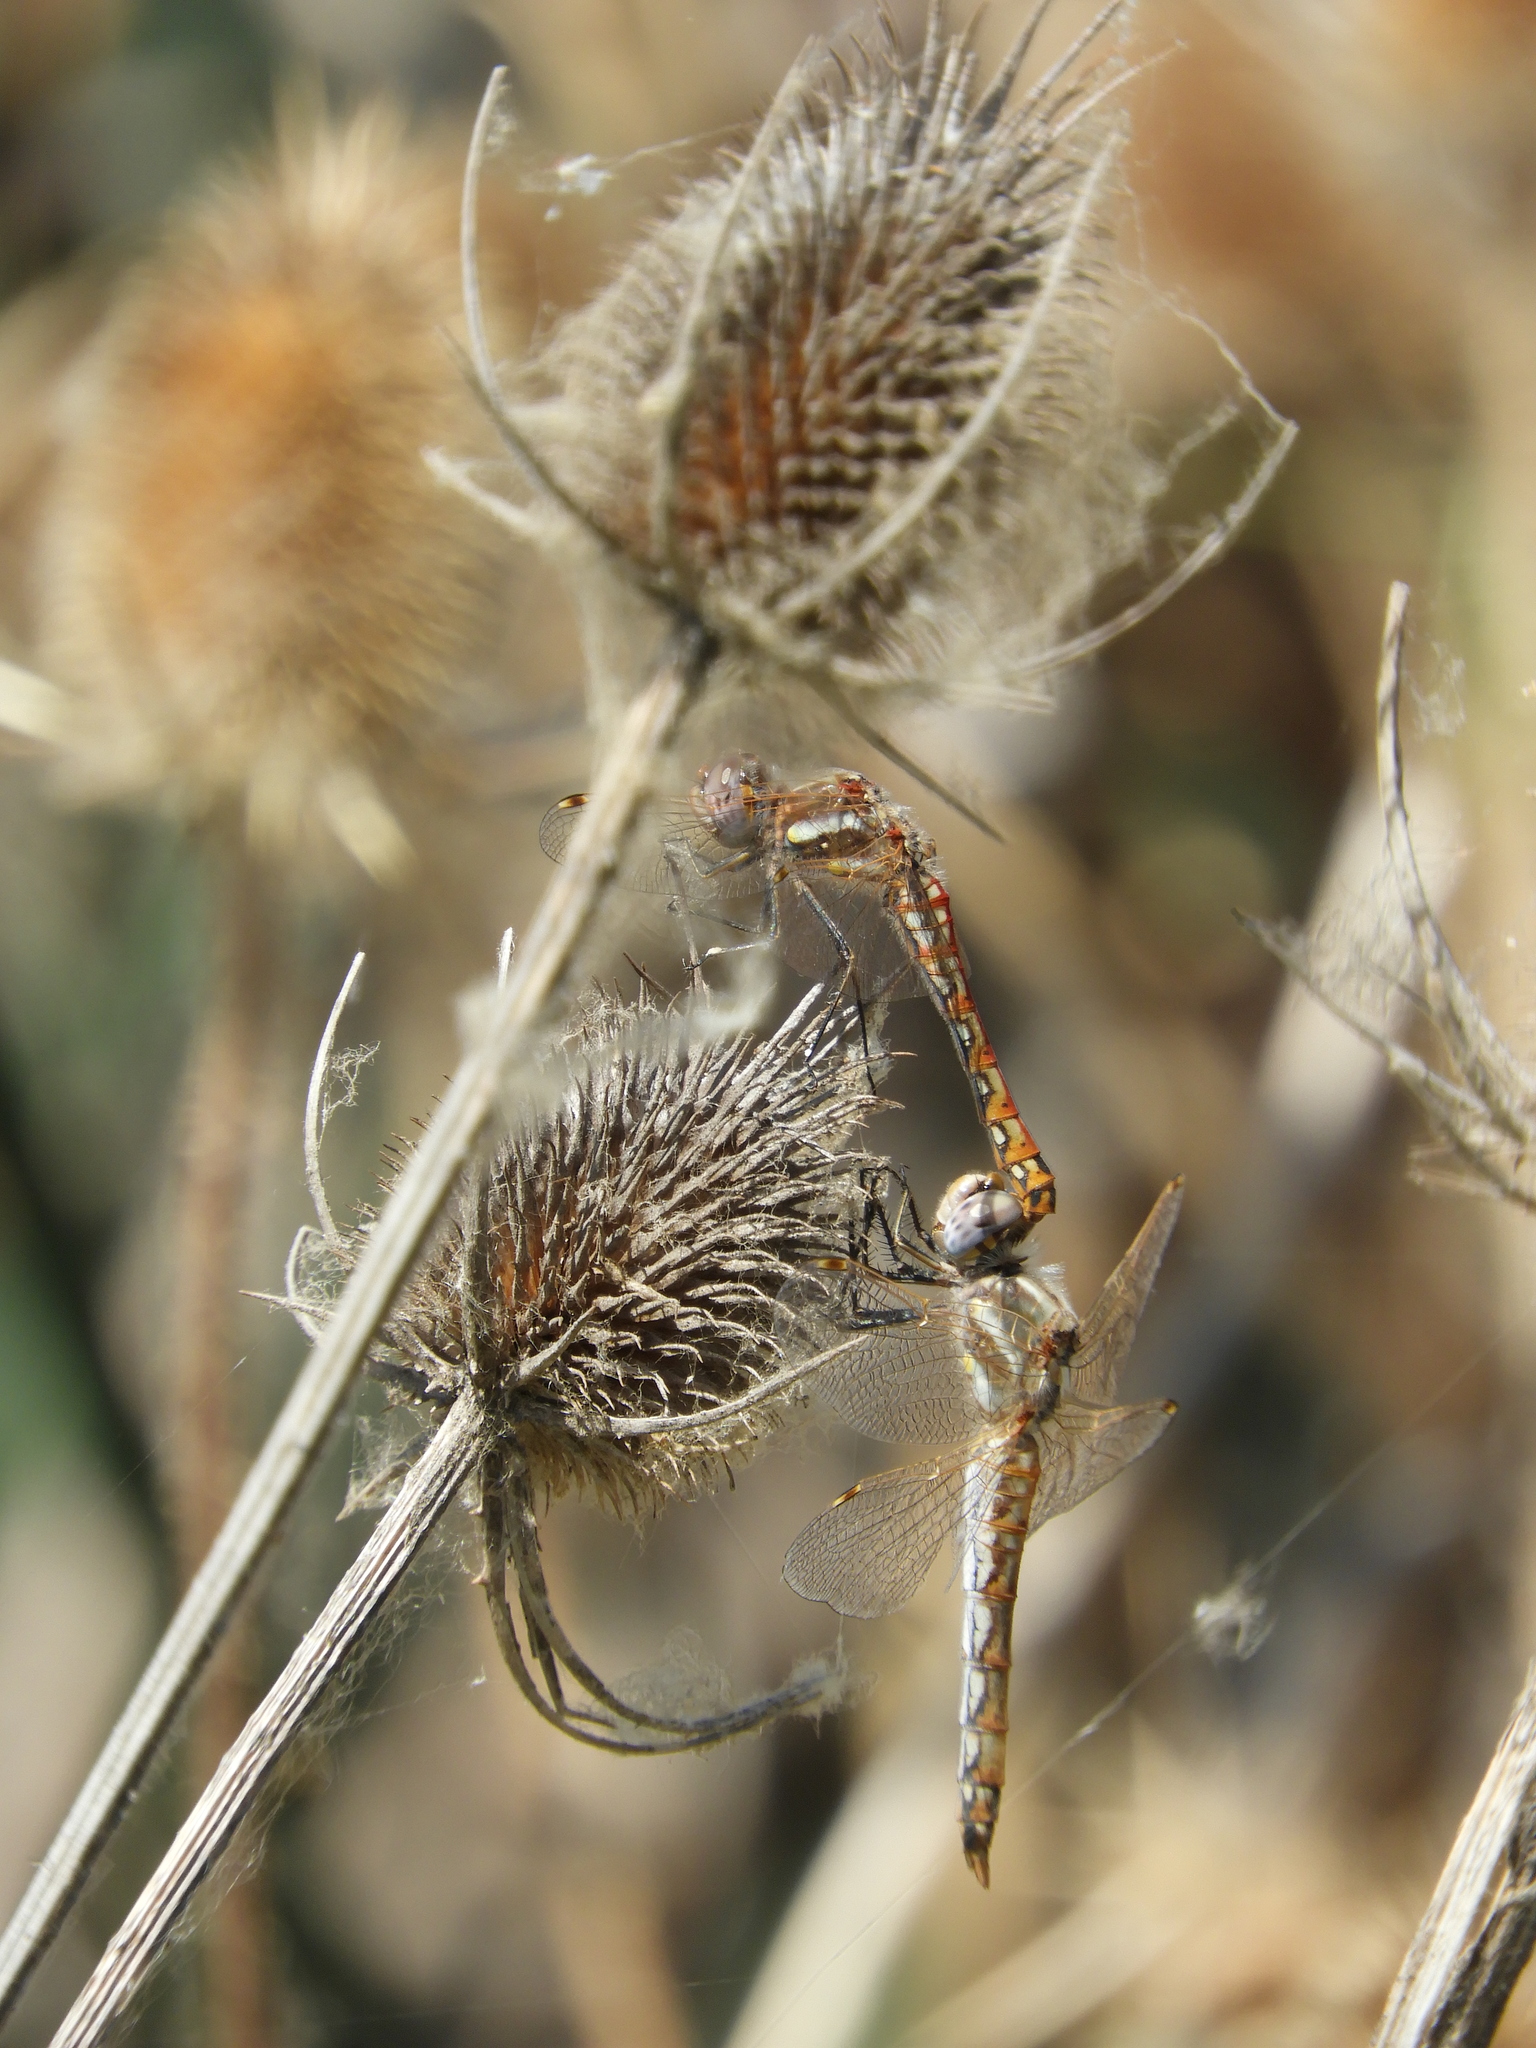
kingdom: Animalia
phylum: Arthropoda
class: Insecta
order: Odonata
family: Libellulidae
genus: Sympetrum
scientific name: Sympetrum corruptum
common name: Variegated meadowhawk
